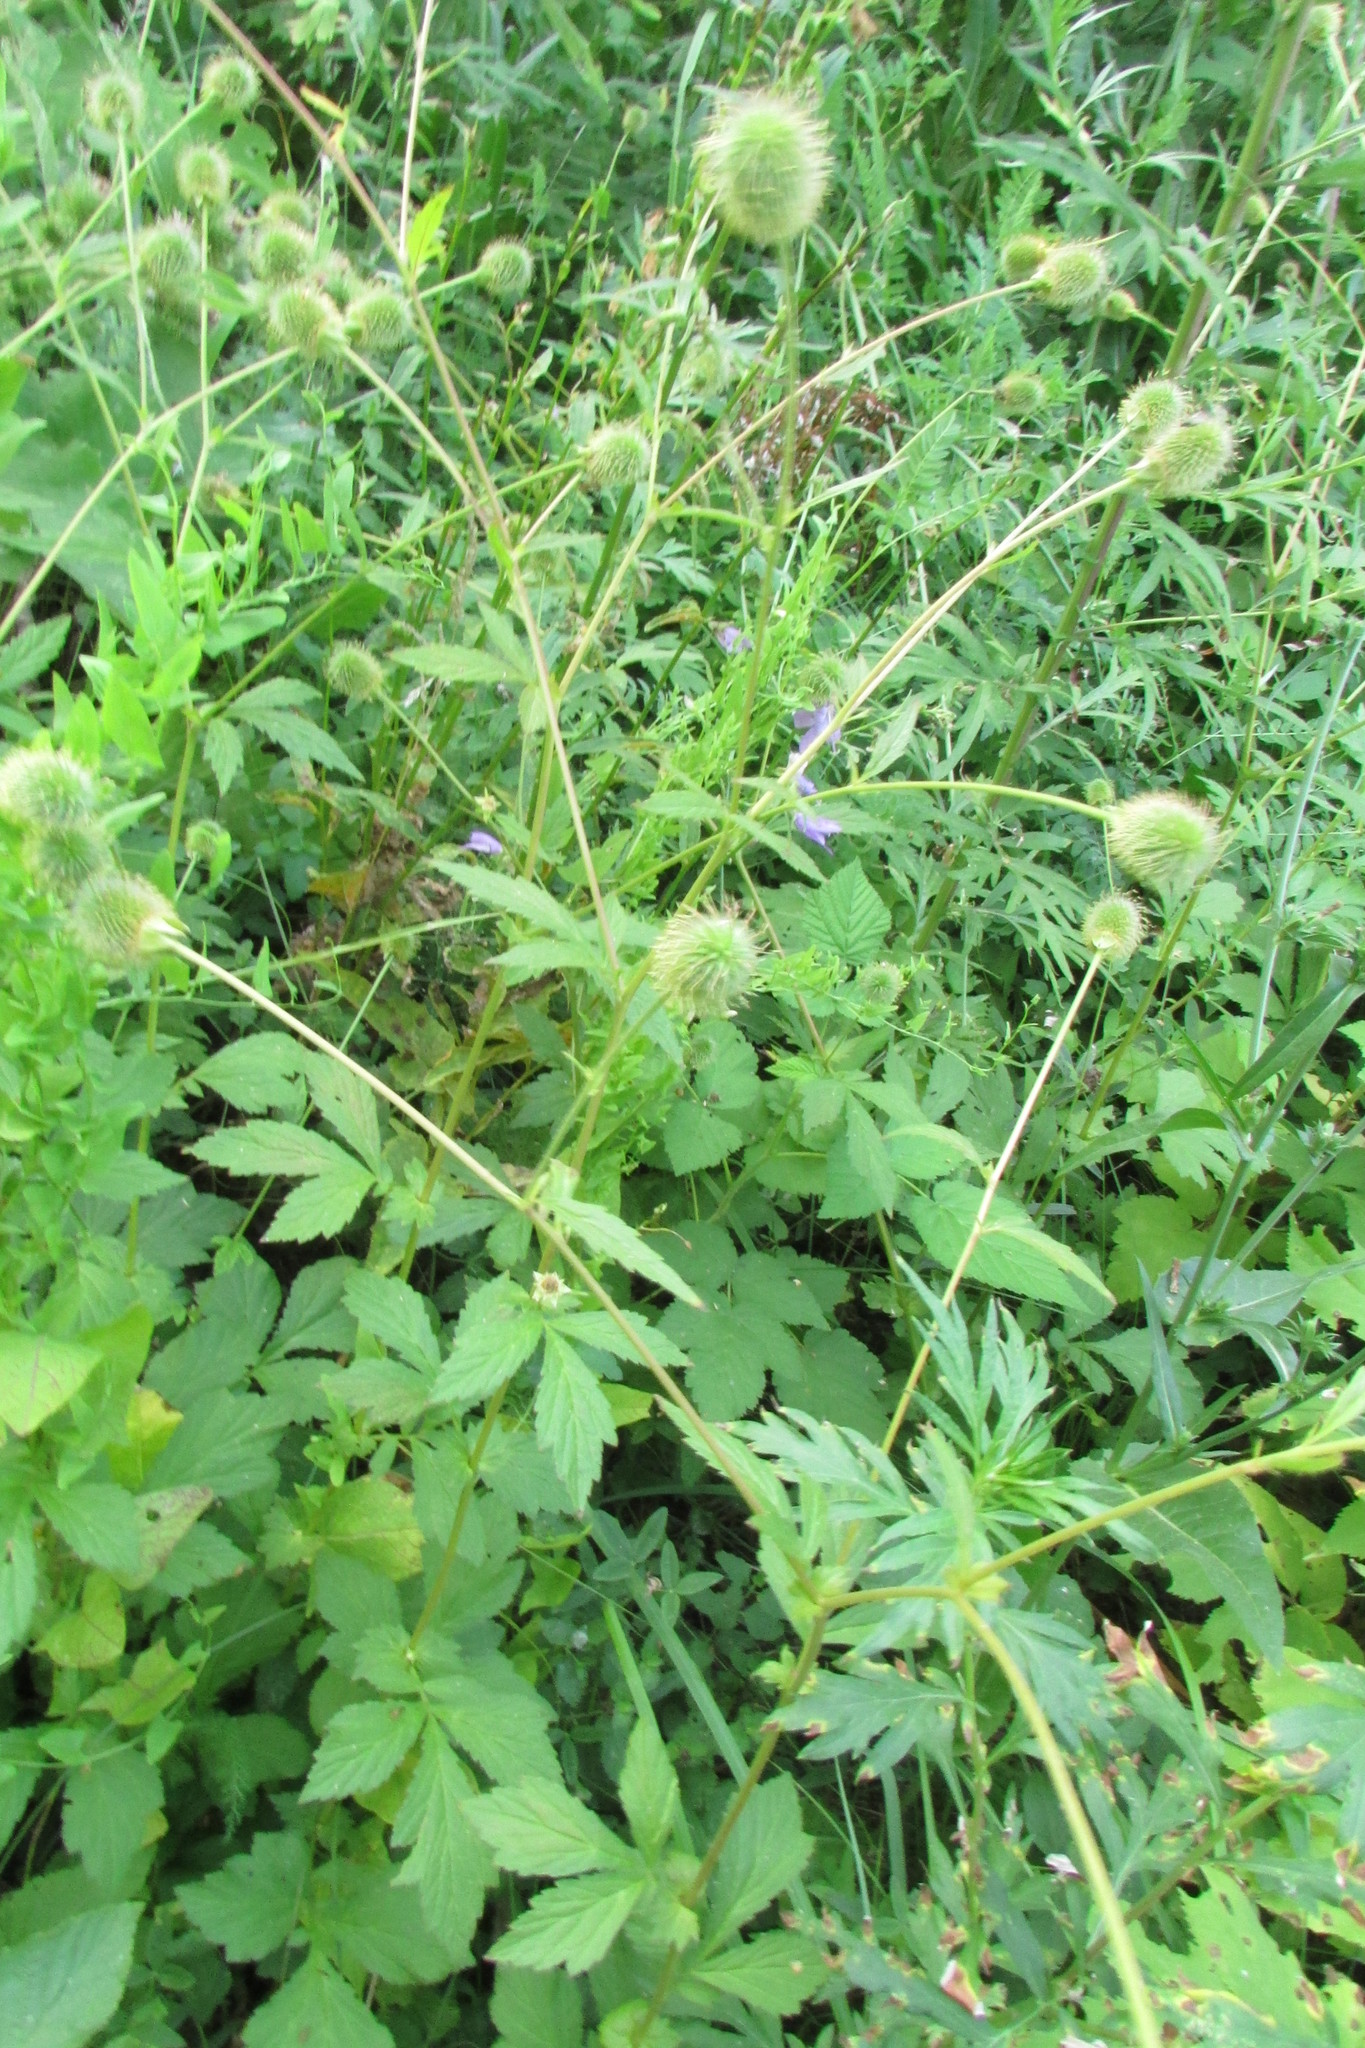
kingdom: Plantae
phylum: Tracheophyta
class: Magnoliopsida
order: Rosales
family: Rosaceae
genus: Geum
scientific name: Geum aleppicum
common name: Yellow avens
